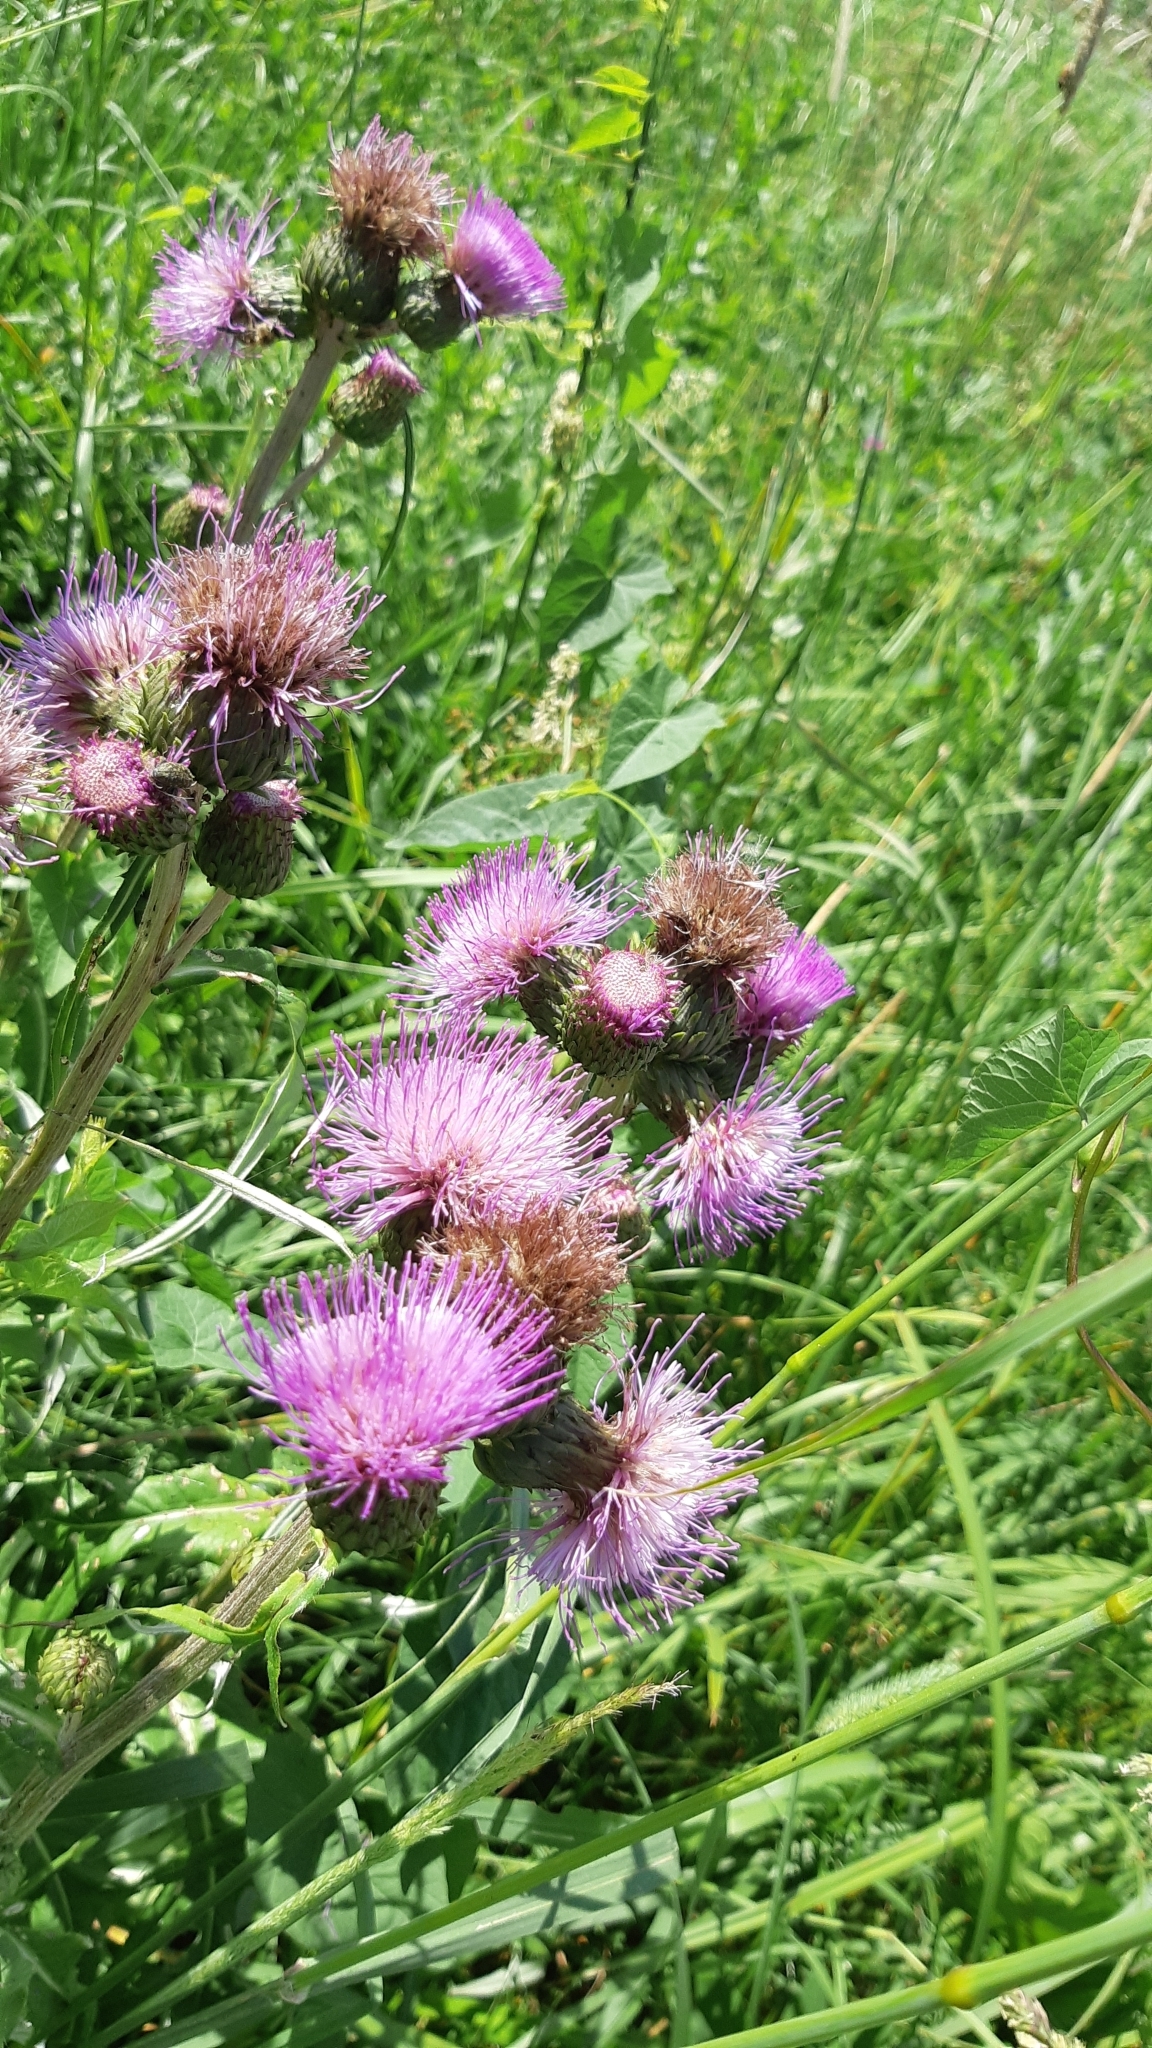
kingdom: Plantae
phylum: Tracheophyta
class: Magnoliopsida
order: Asterales
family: Asteraceae
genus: Cirsium
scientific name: Cirsium heterophyllum
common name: Melancholy thistle
